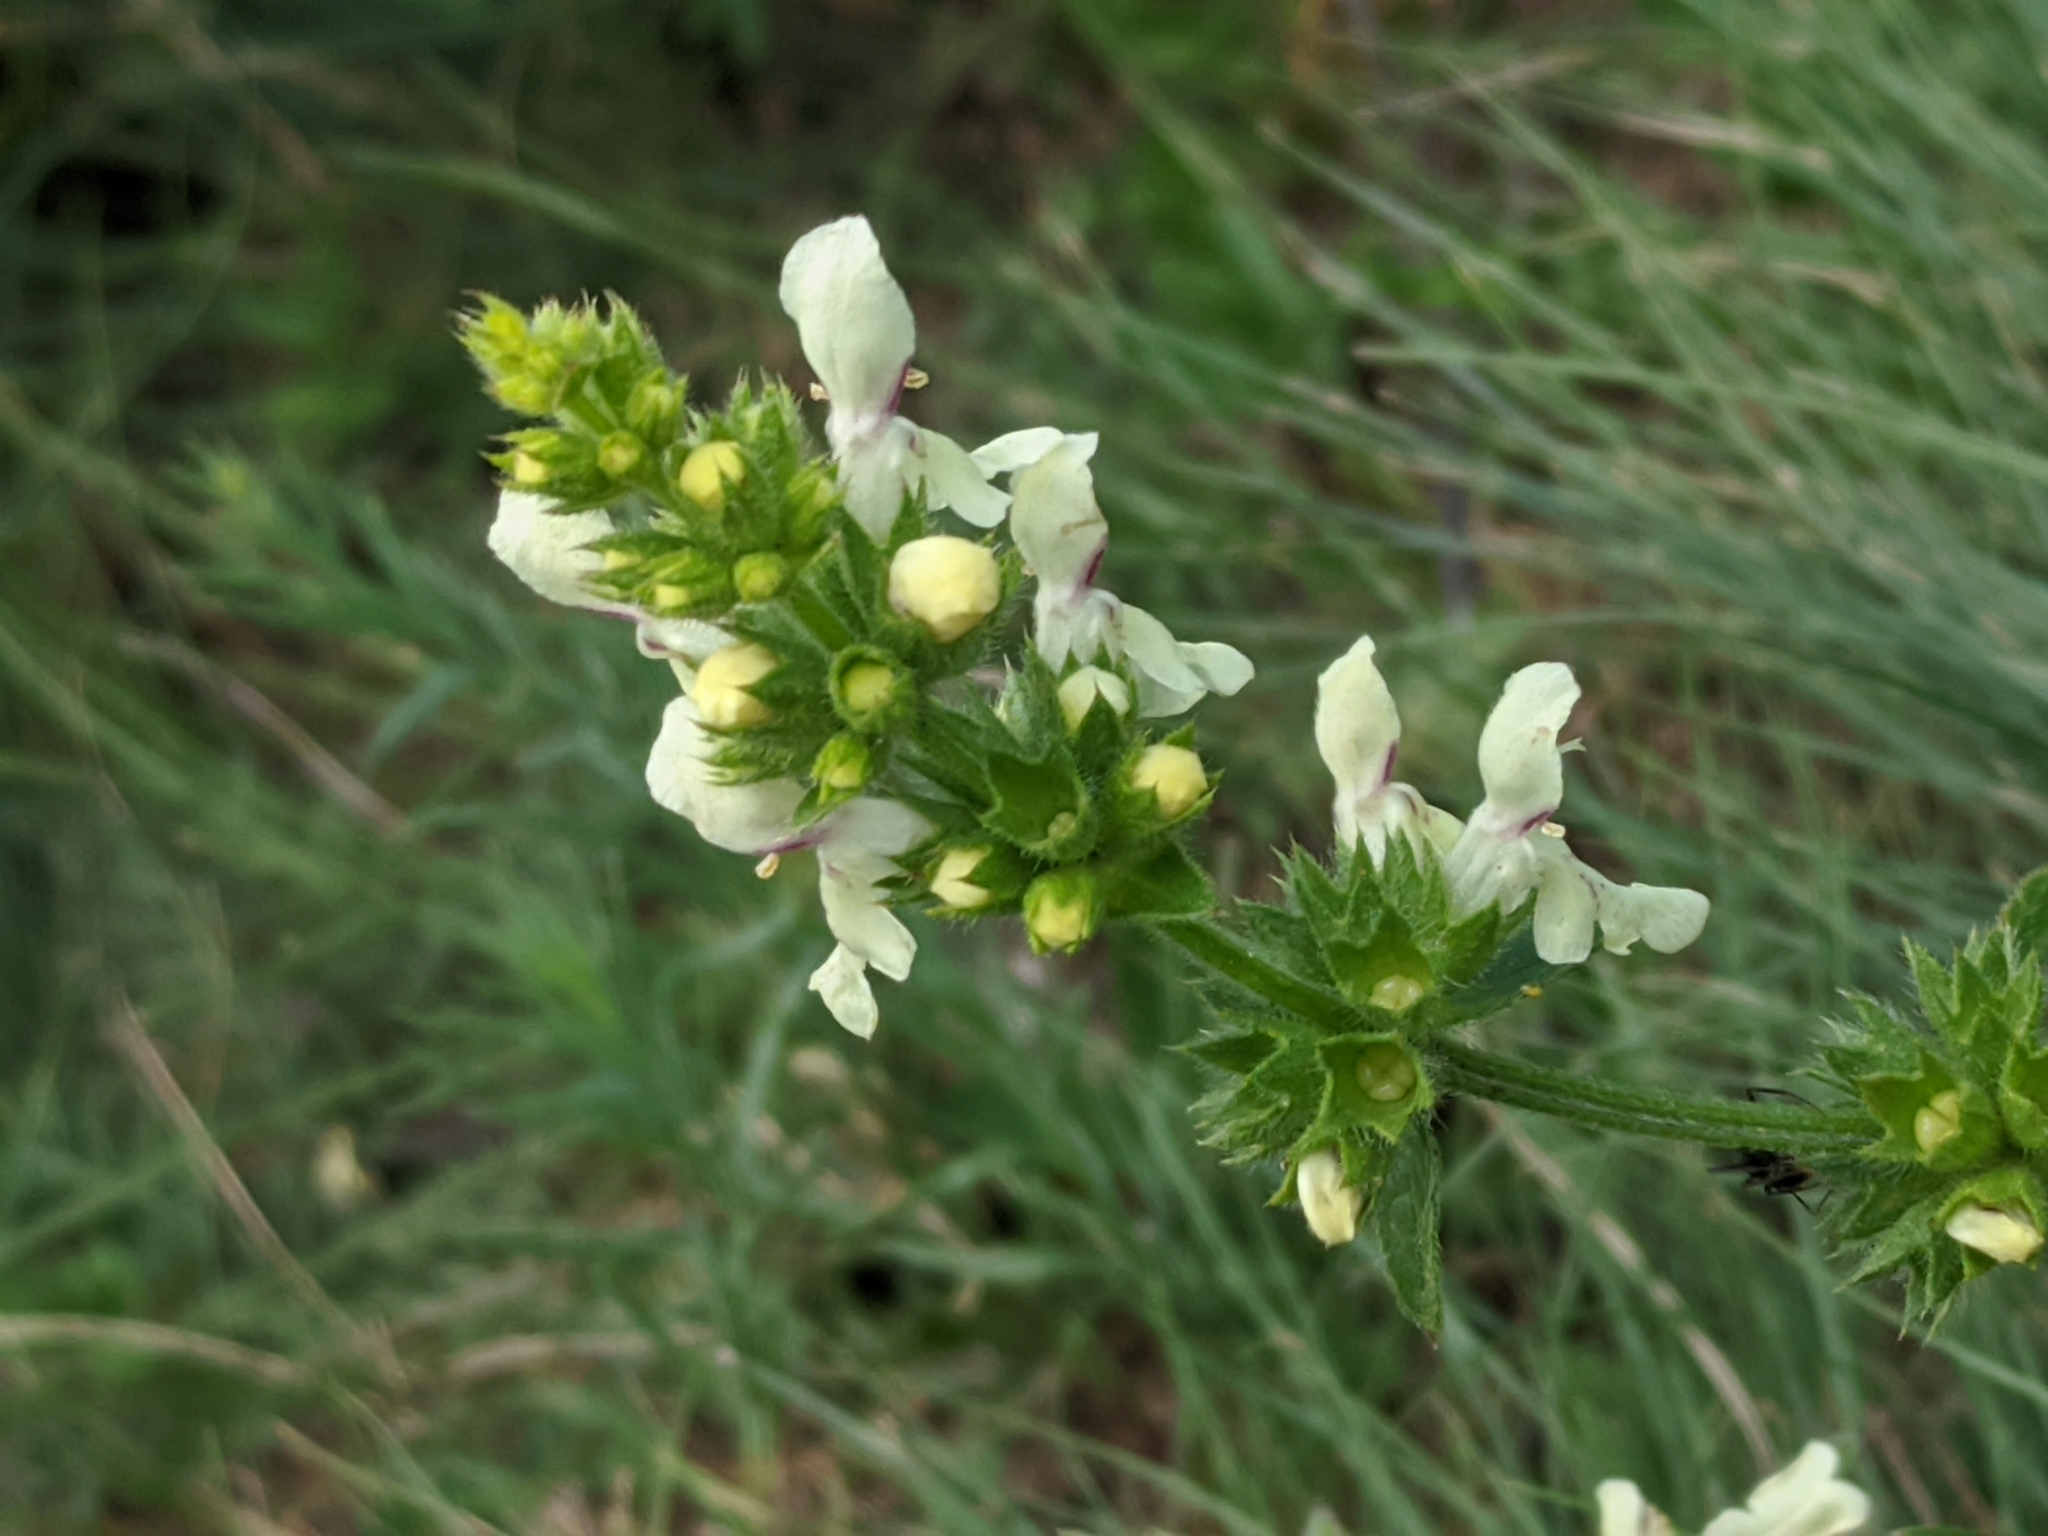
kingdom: Plantae
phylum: Tracheophyta
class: Magnoliopsida
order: Lamiales
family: Lamiaceae
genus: Stachys
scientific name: Stachys recta
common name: Perennial yellow-woundwort
